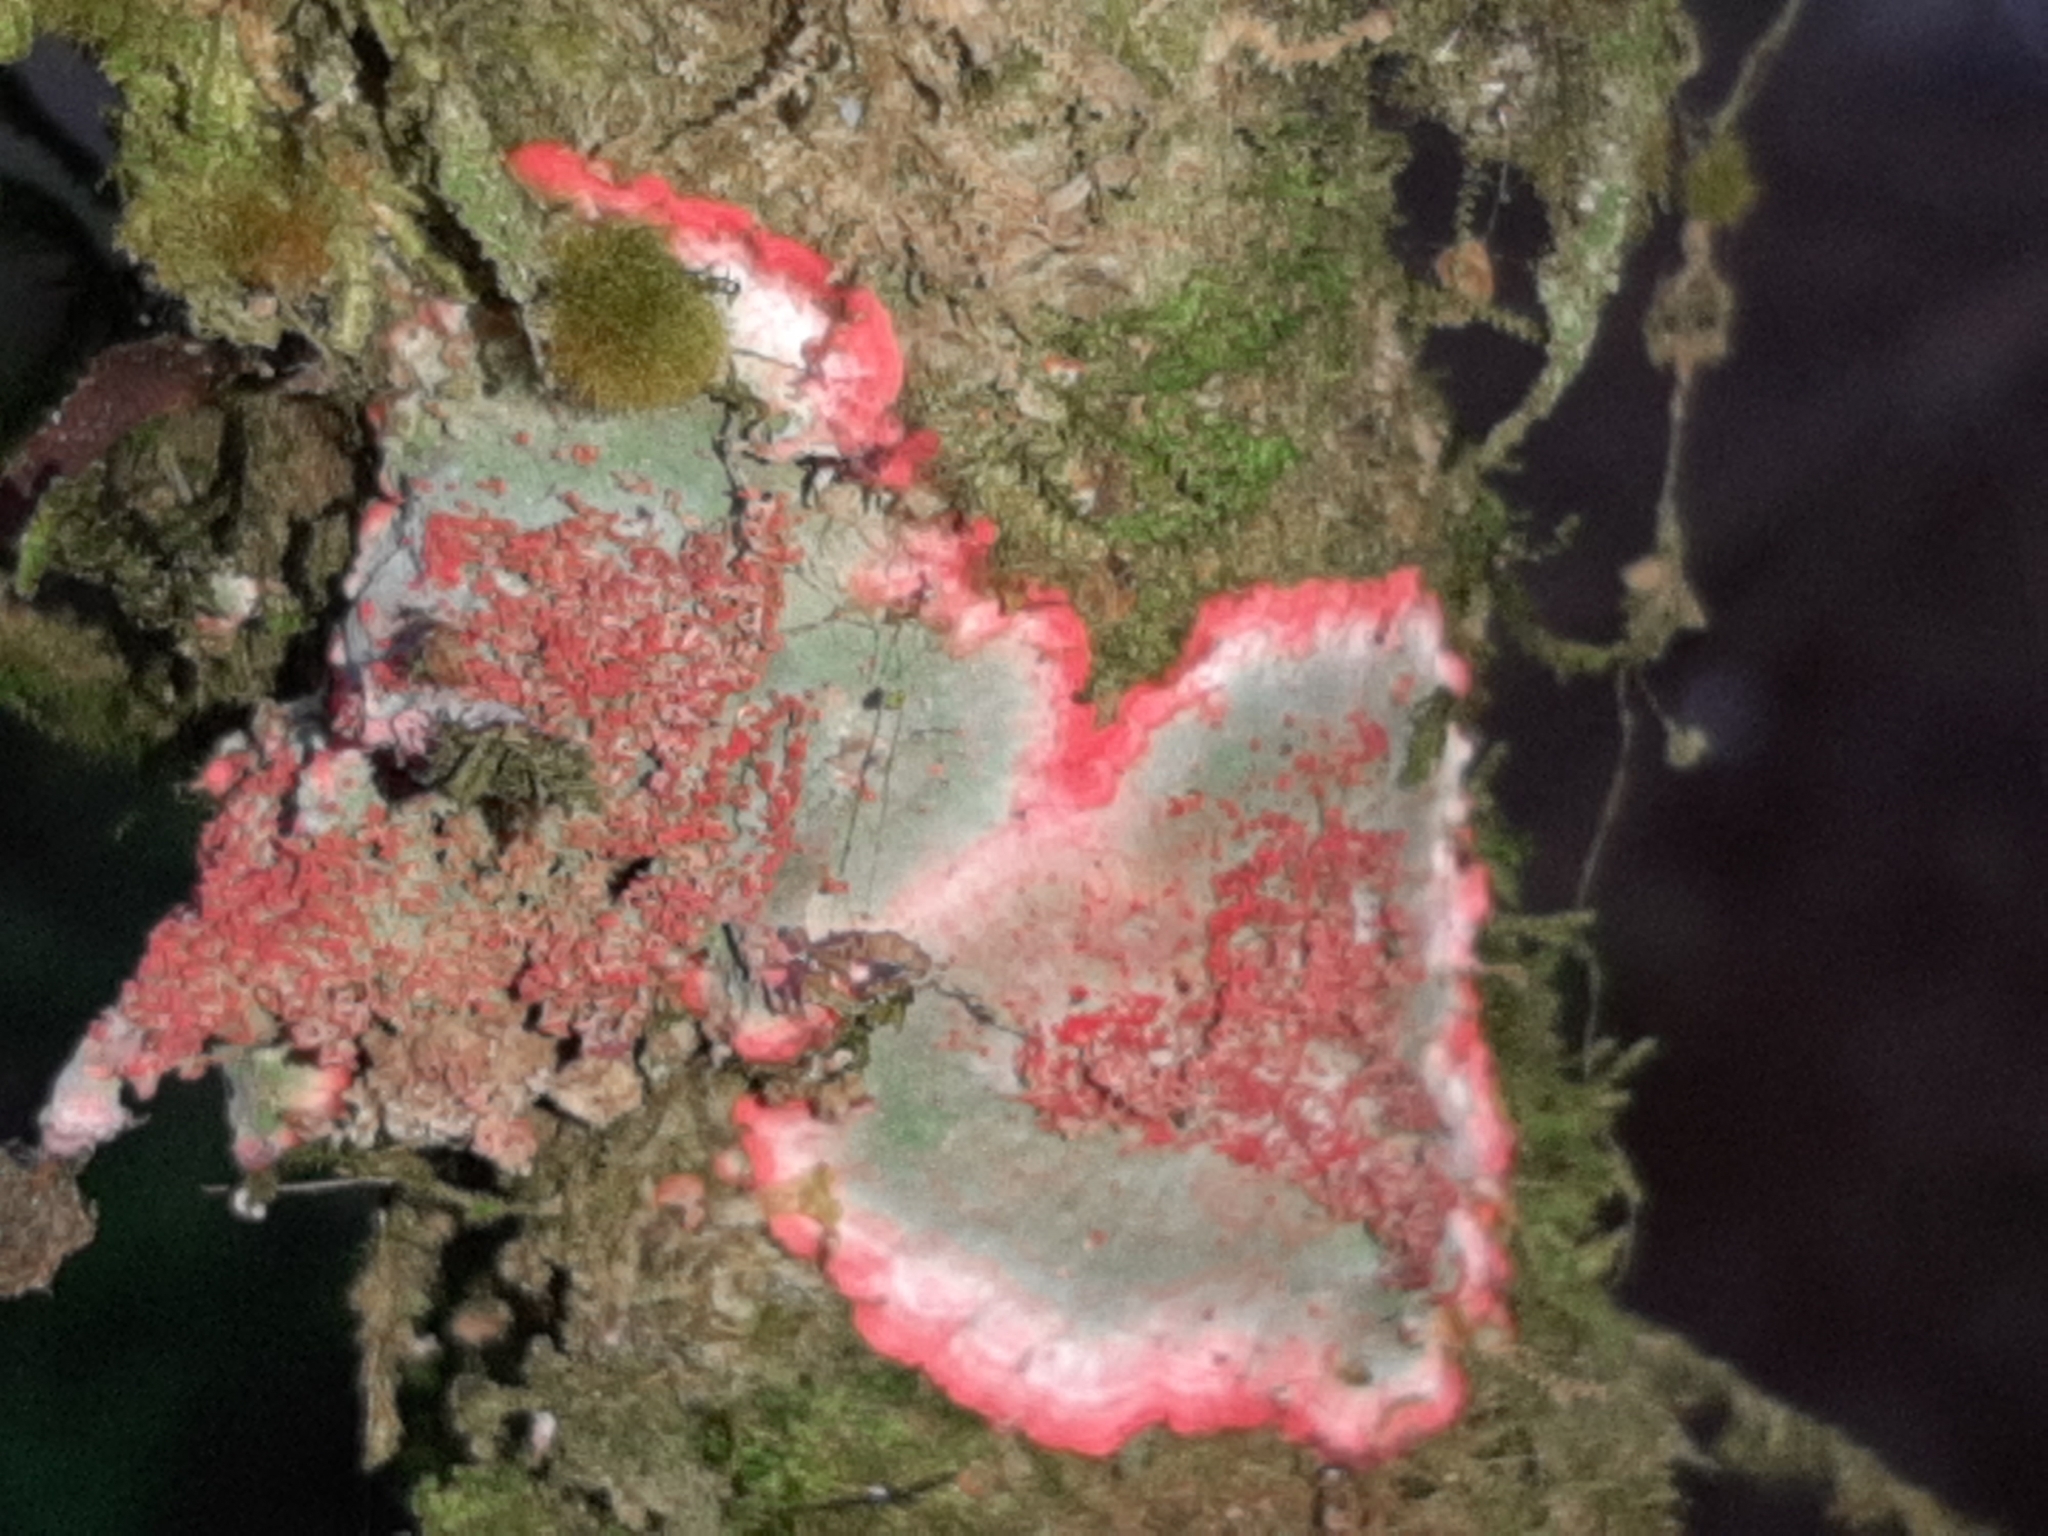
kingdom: Fungi
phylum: Ascomycota
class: Arthoniomycetes
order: Arthoniales
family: Arthoniaceae
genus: Herpothallon
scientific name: Herpothallon rubrocinctum
